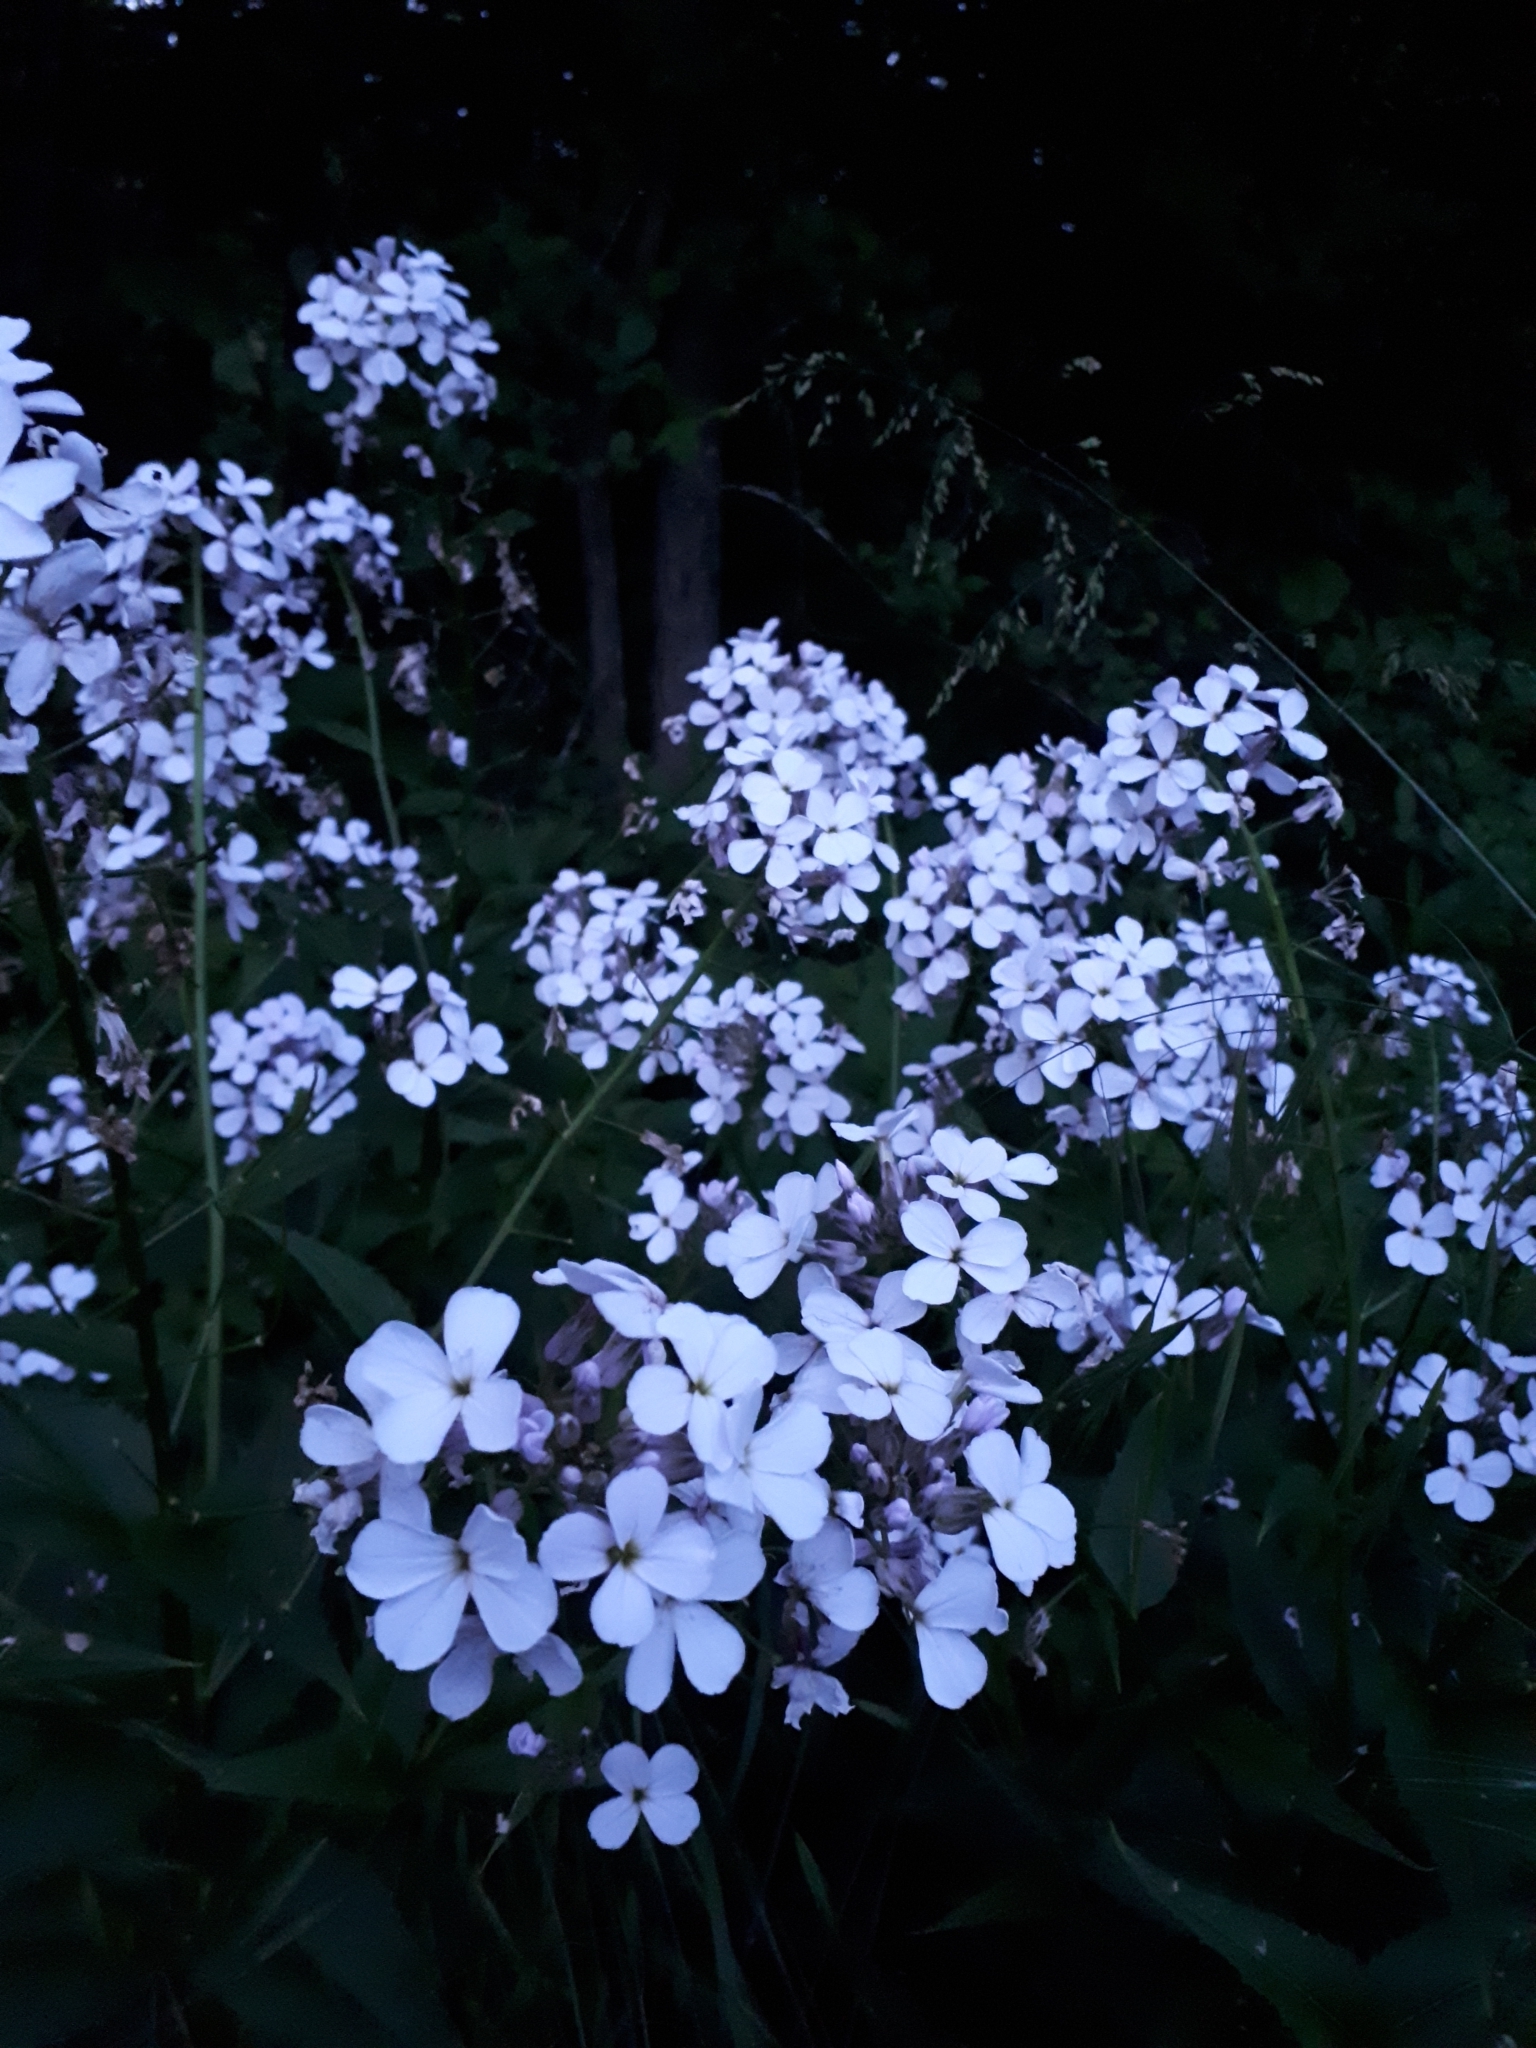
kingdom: Plantae
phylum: Tracheophyta
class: Magnoliopsida
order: Brassicales
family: Brassicaceae
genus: Hesperis
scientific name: Hesperis matronalis
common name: Dame's-violet
